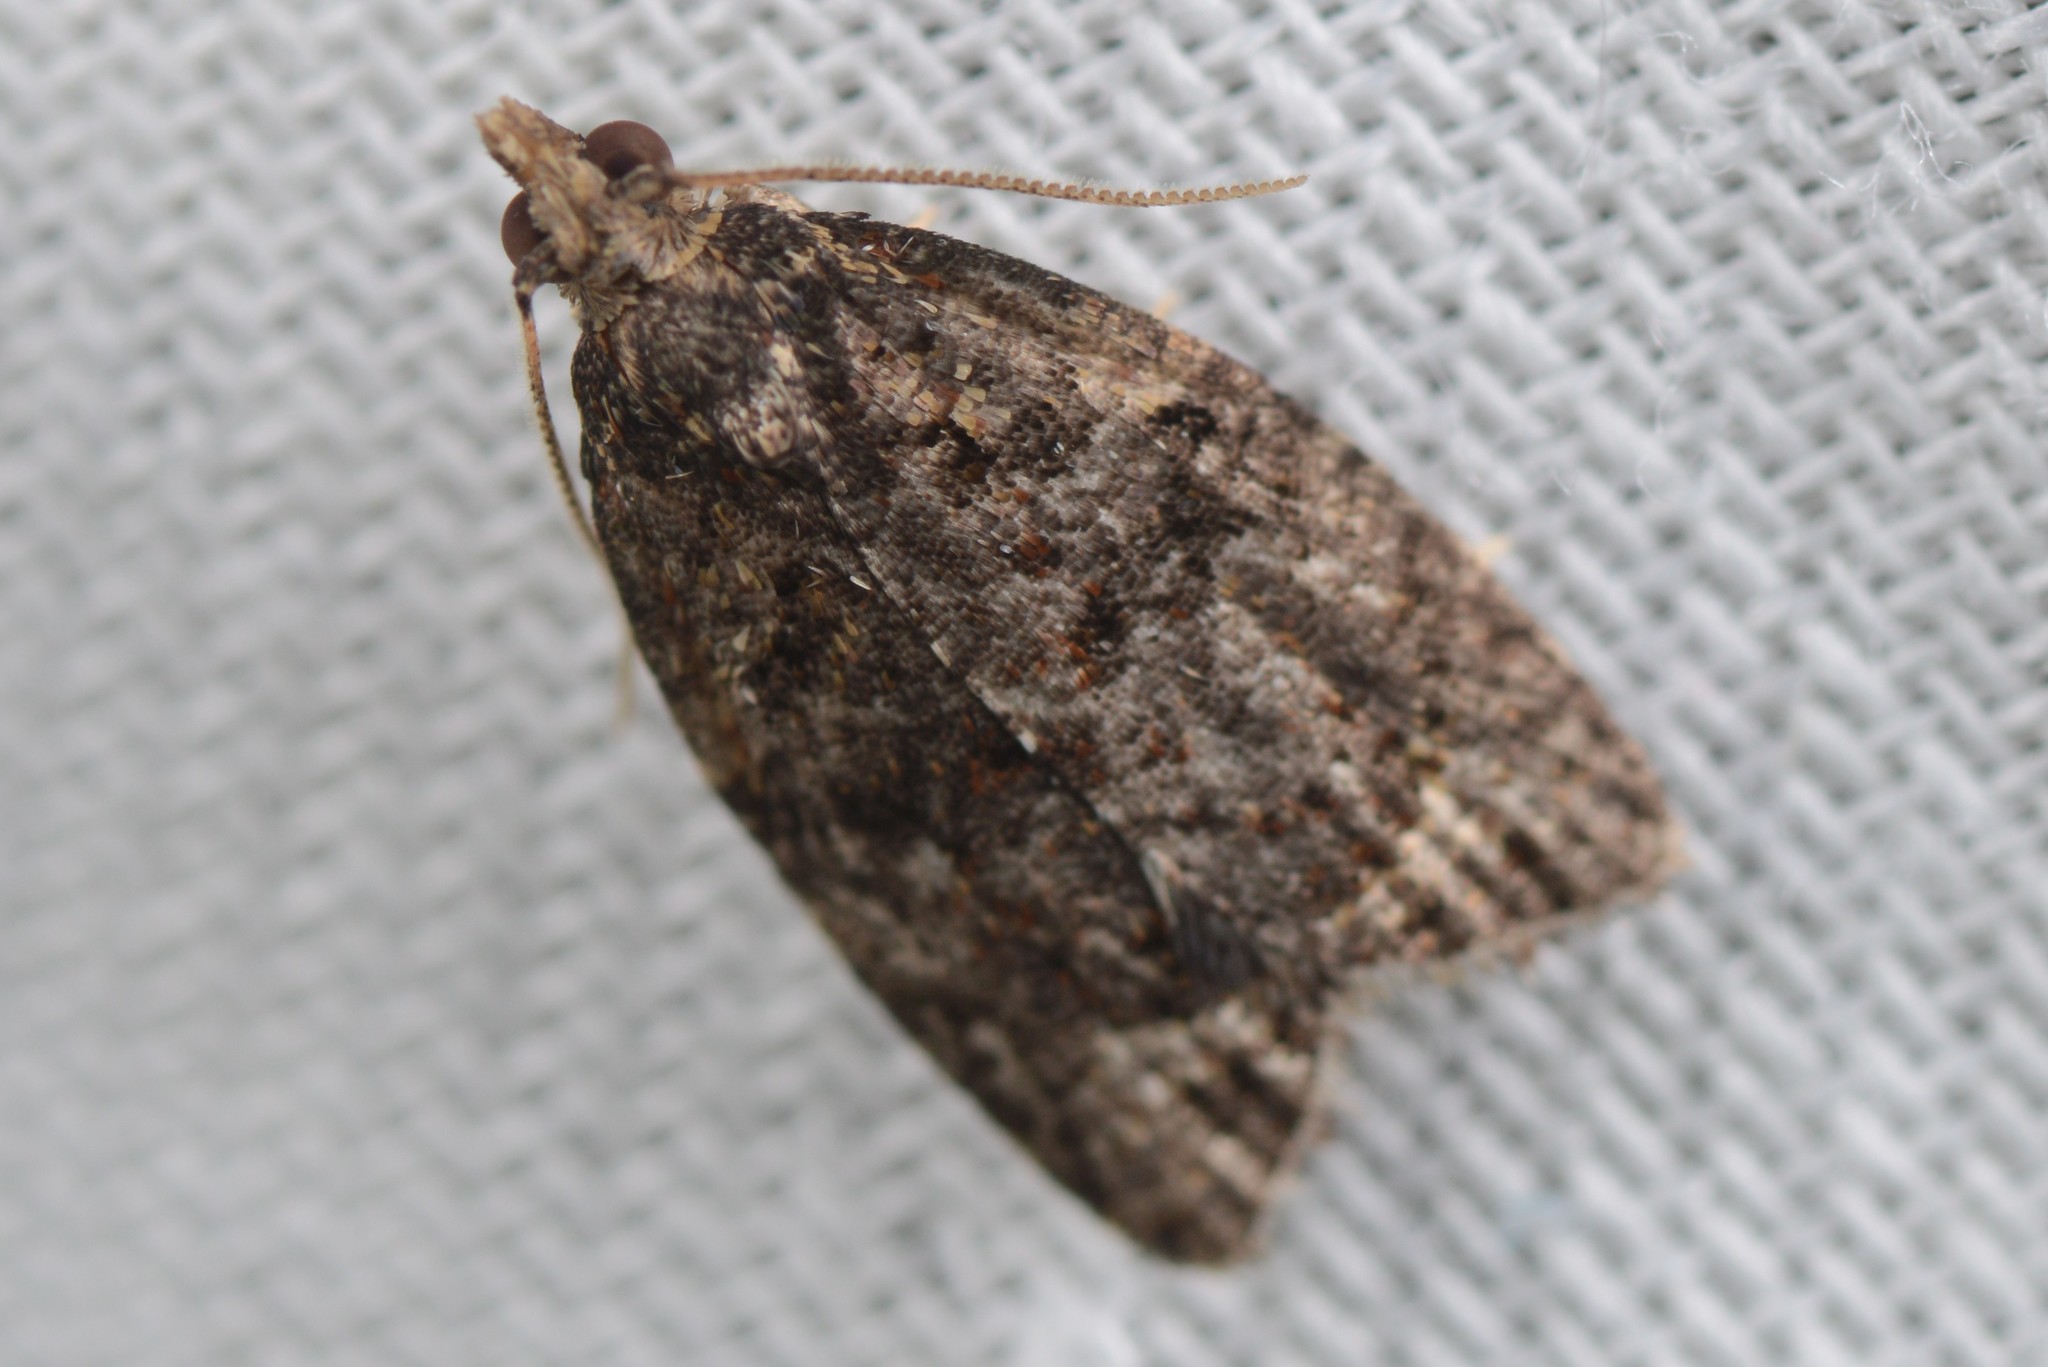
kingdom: Animalia
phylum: Arthropoda
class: Insecta
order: Lepidoptera
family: Tortricidae
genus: Capua
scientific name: Capua intractana
